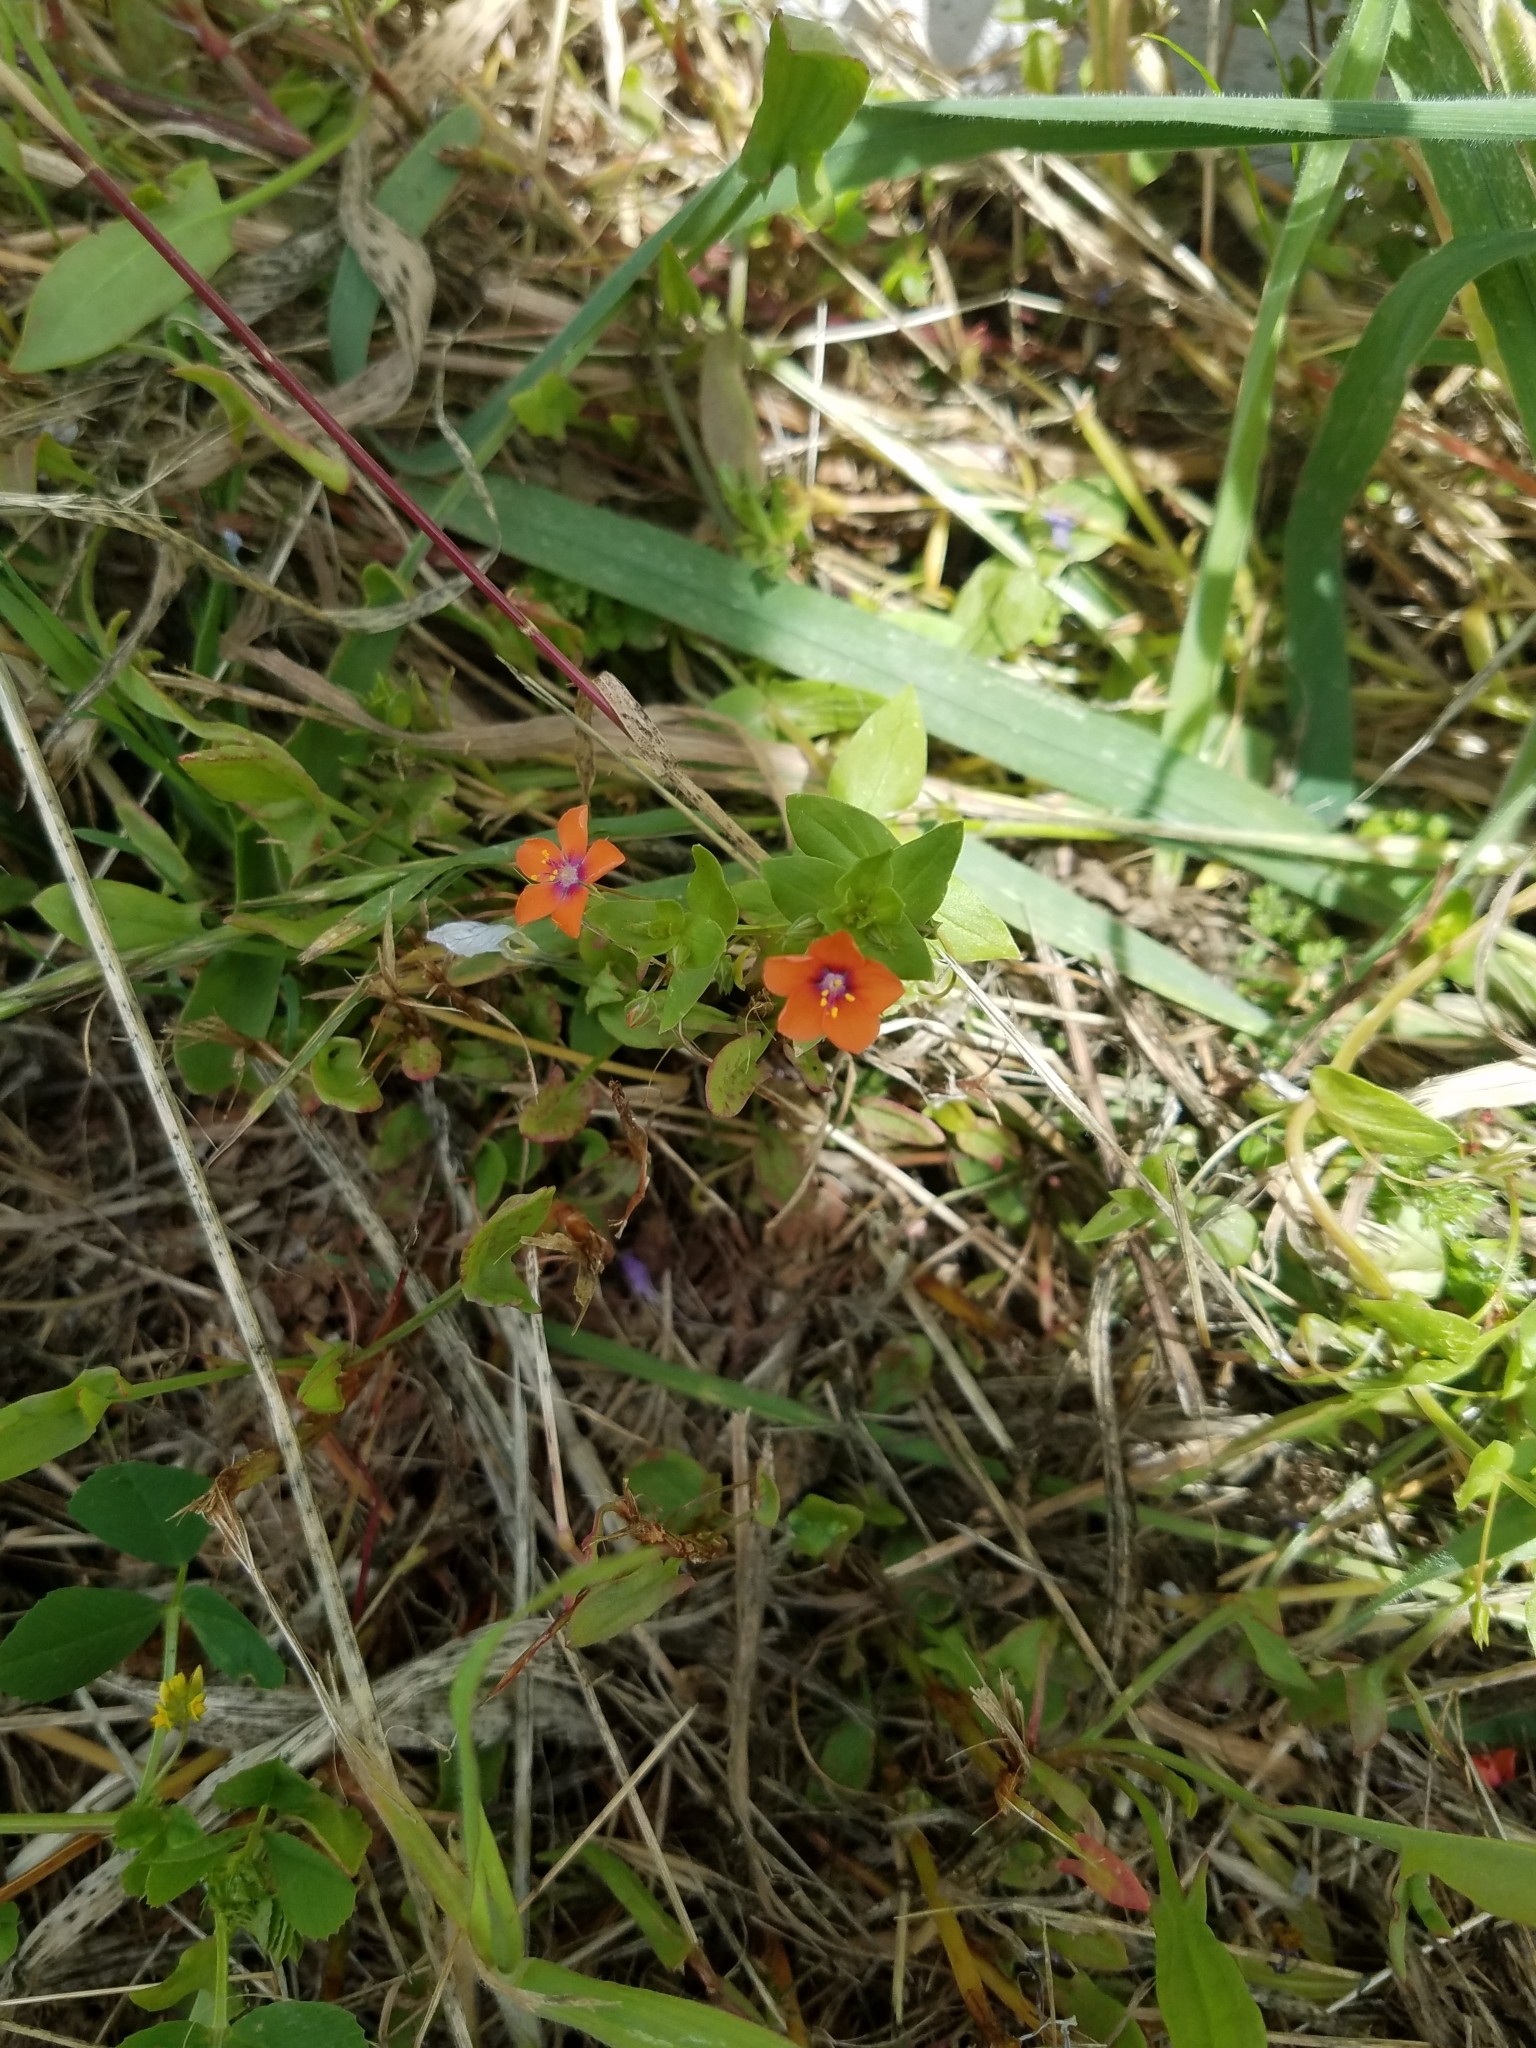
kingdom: Plantae
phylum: Tracheophyta
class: Magnoliopsida
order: Ericales
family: Primulaceae
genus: Lysimachia
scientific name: Lysimachia arvensis
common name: Scarlet pimpernel
